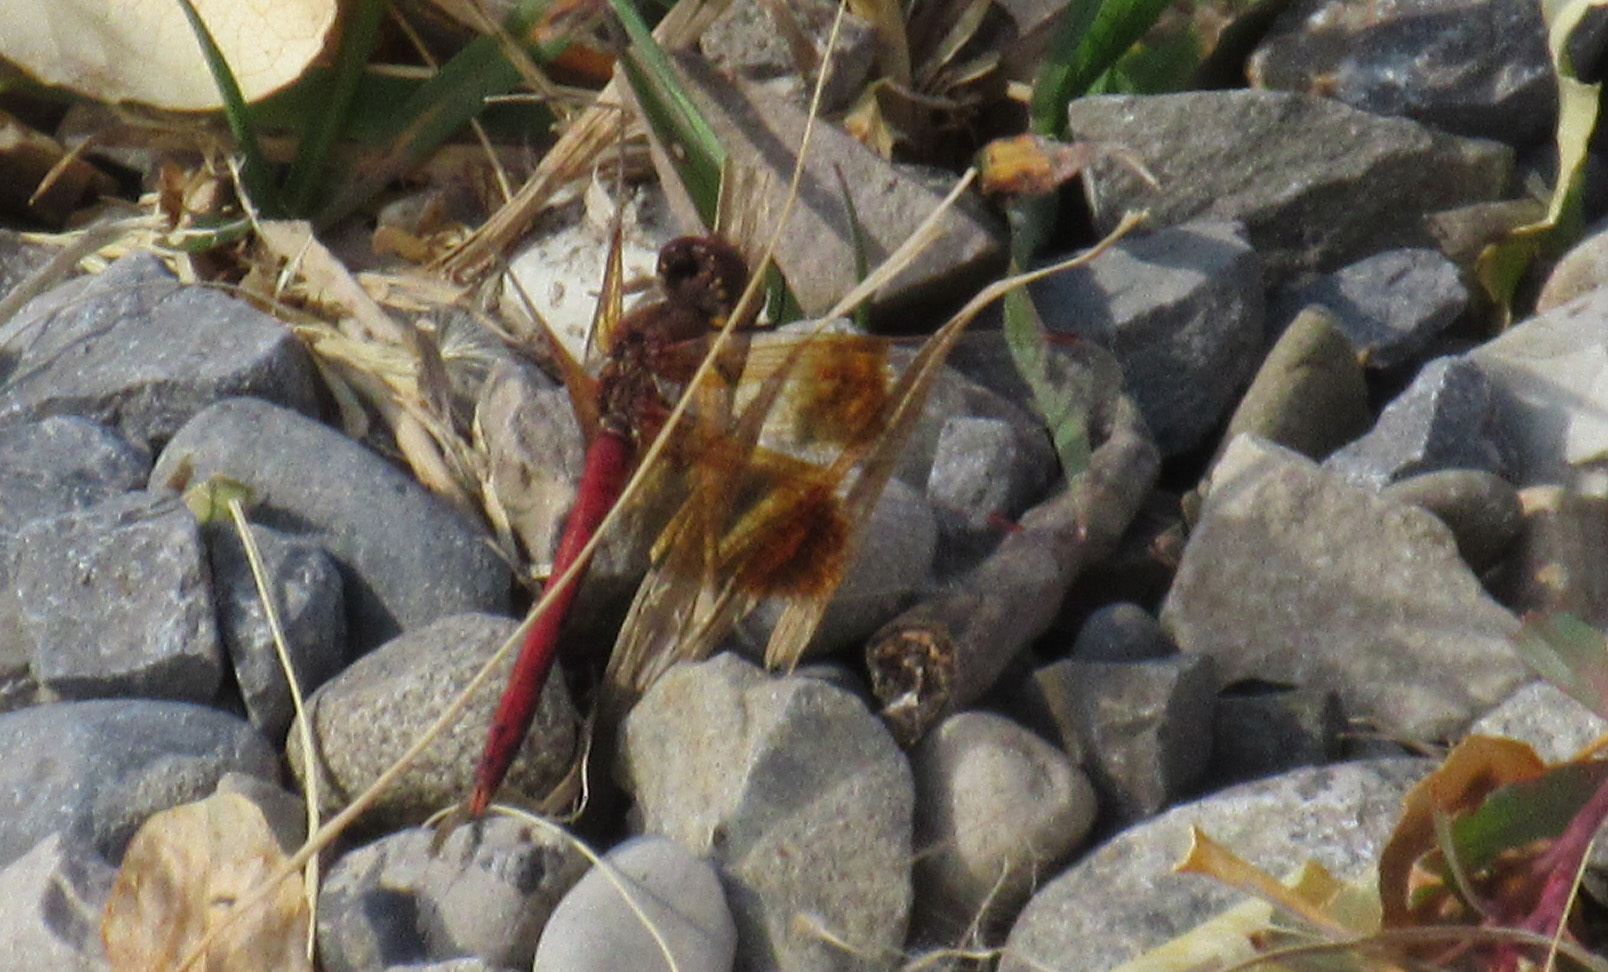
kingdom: Animalia
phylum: Arthropoda
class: Insecta
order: Odonata
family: Libellulidae
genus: Sympetrum
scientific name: Sympetrum semicinctum
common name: Band-winged meadowhawk
